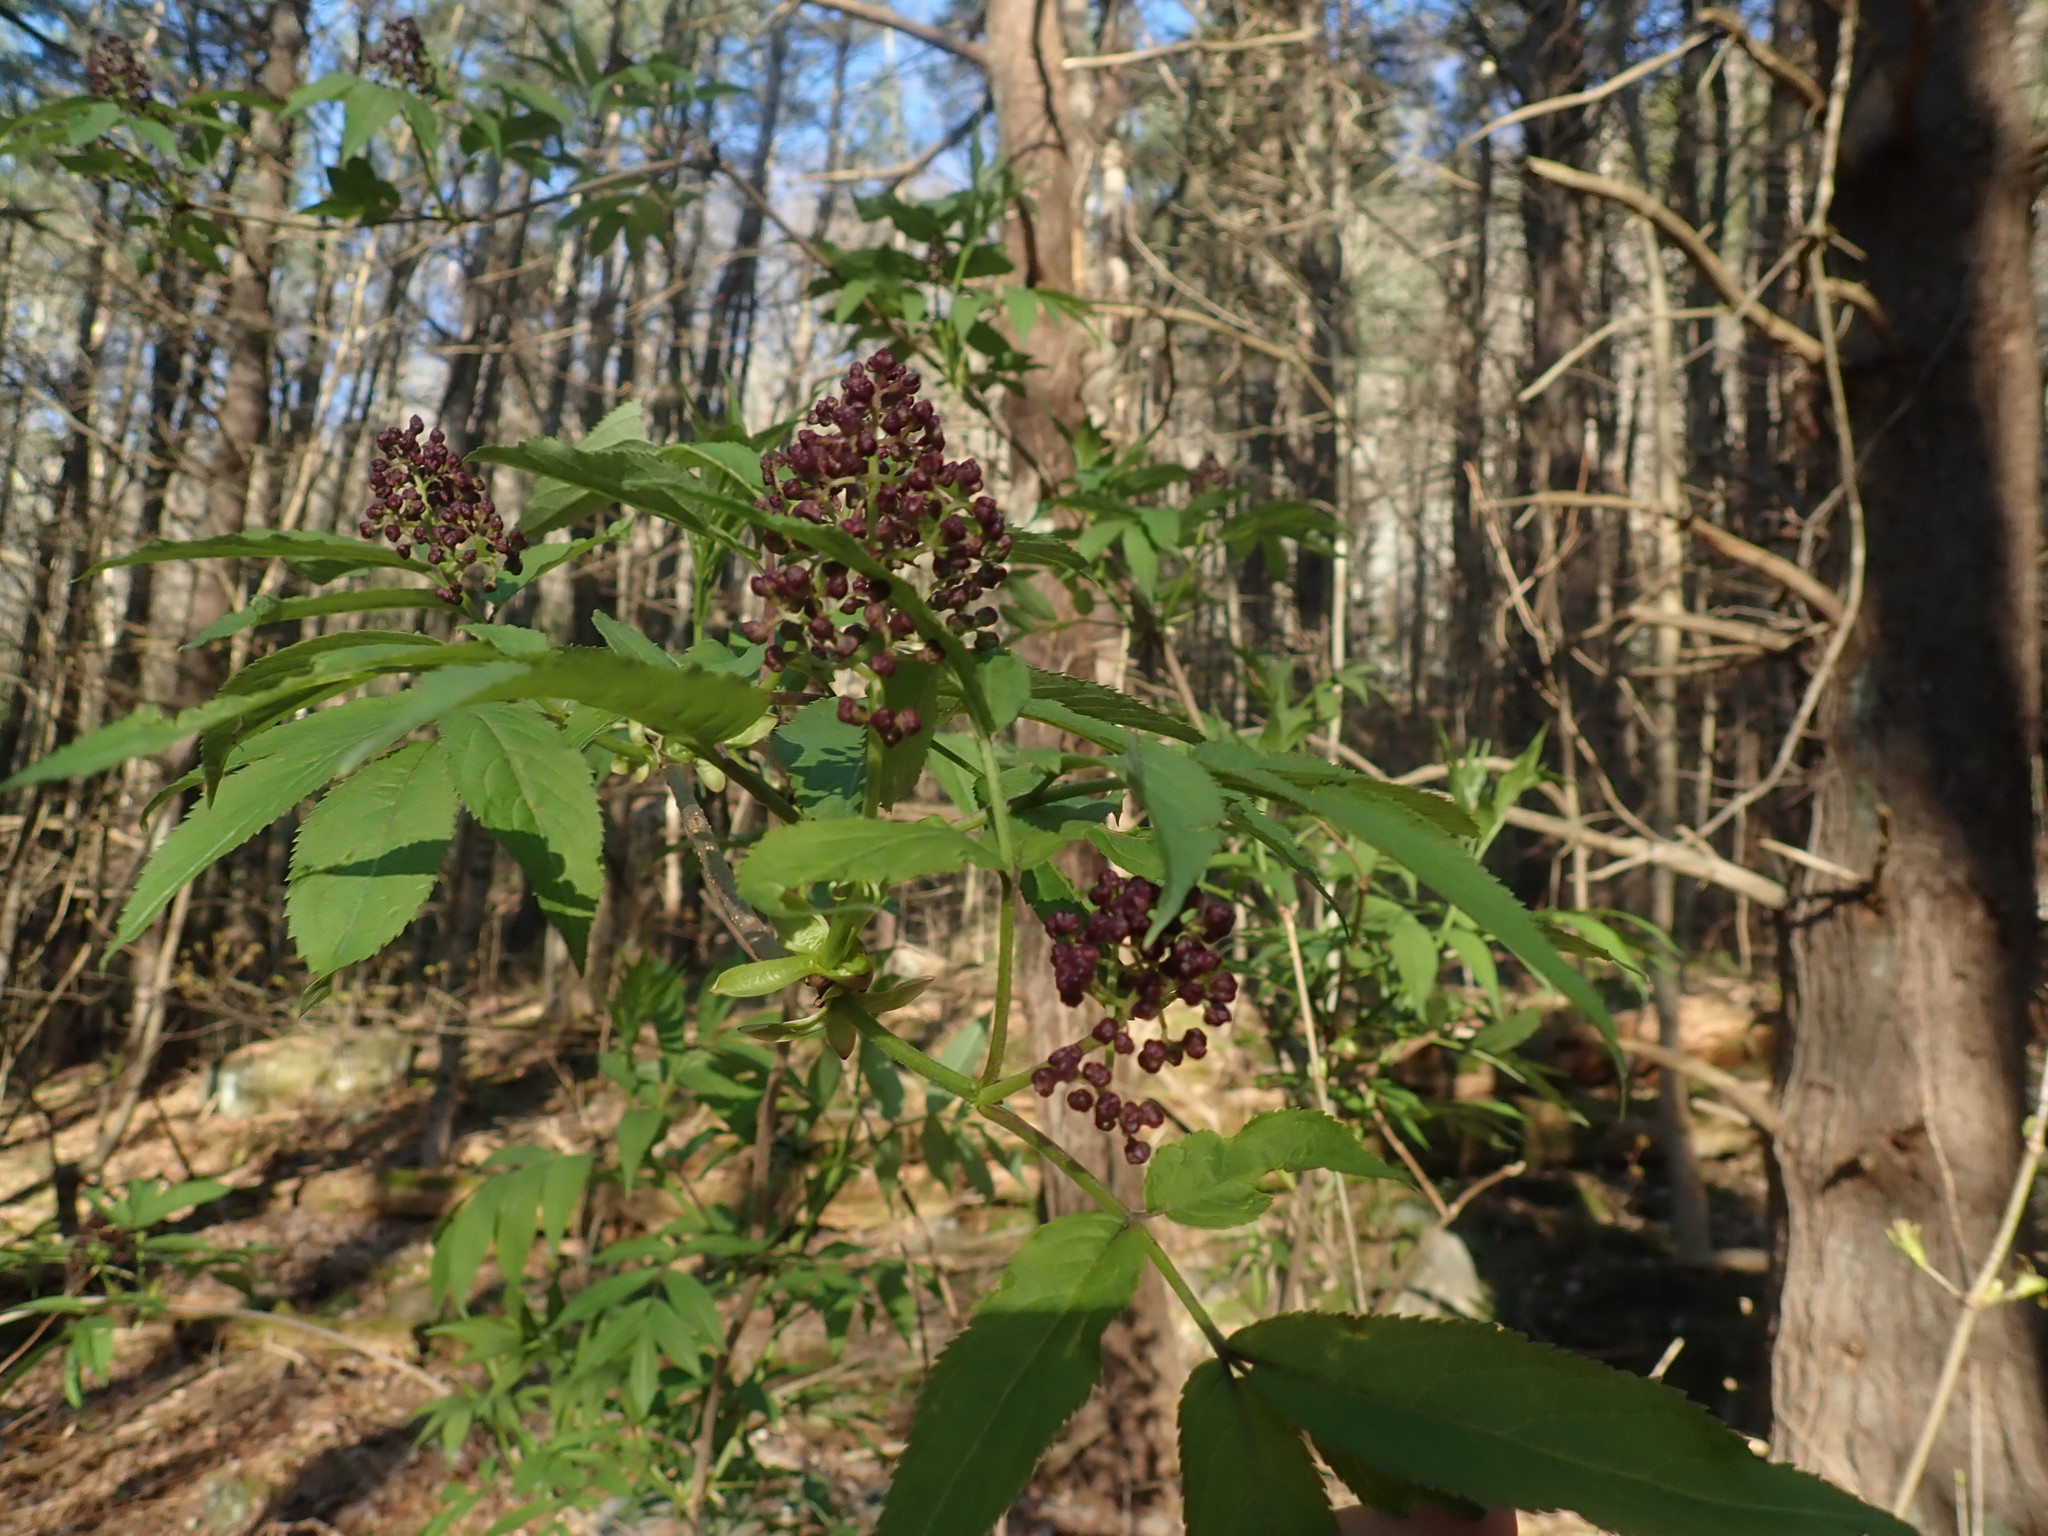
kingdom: Plantae
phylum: Tracheophyta
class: Magnoliopsida
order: Dipsacales
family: Viburnaceae
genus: Sambucus
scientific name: Sambucus racemosa
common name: Red-berried elder
